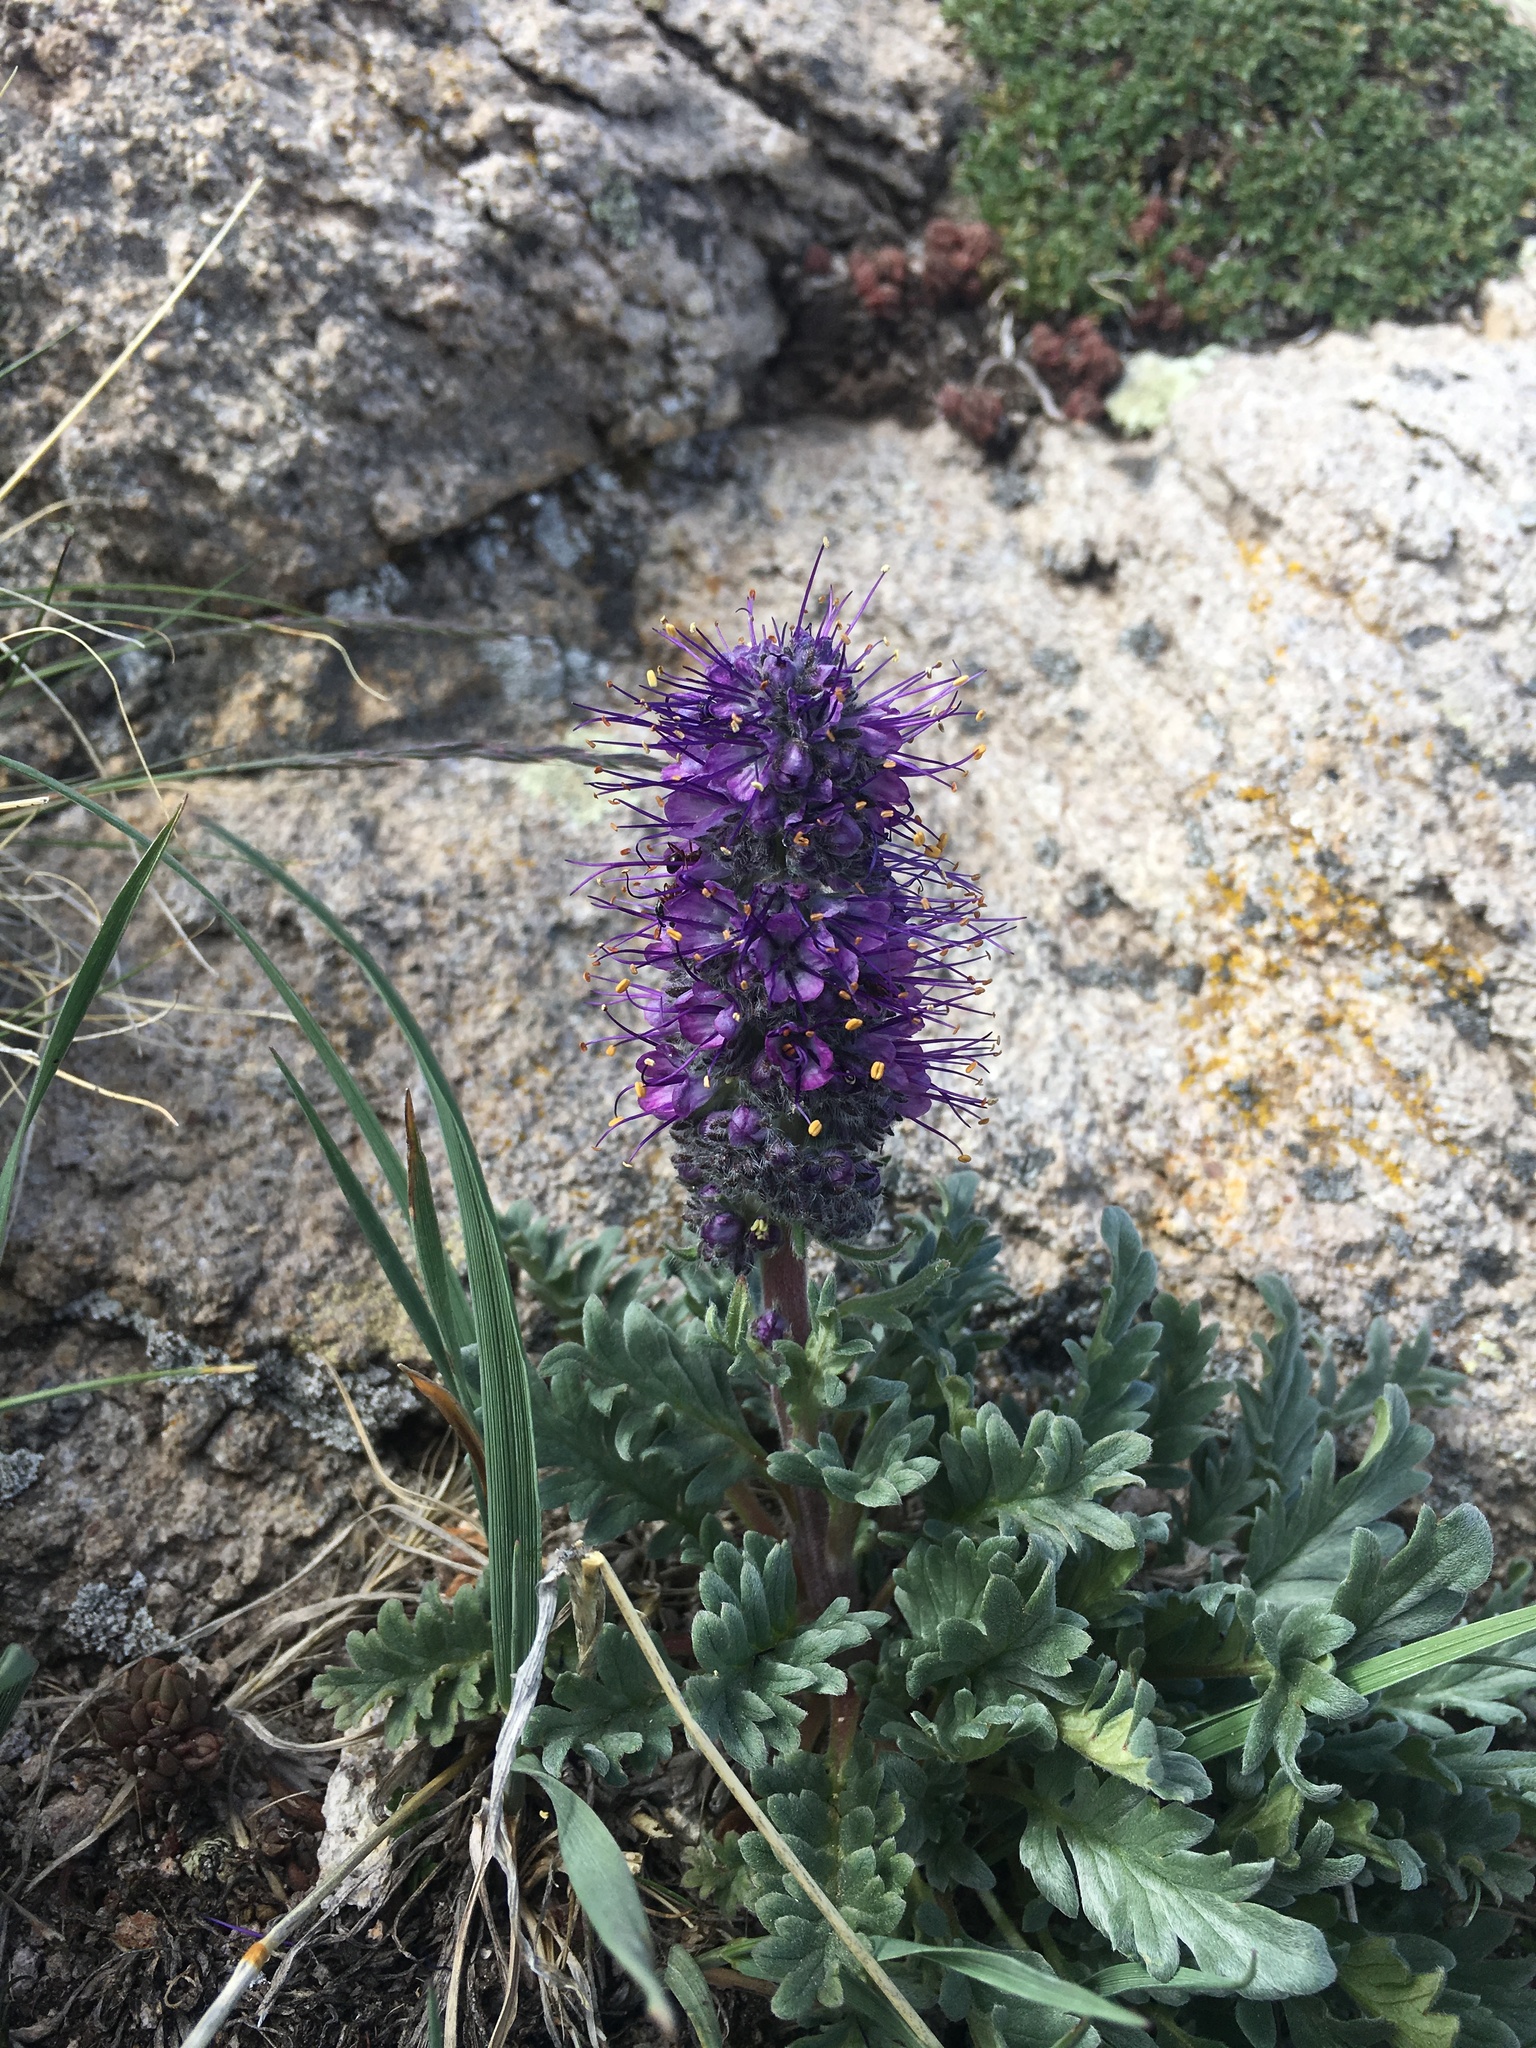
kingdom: Plantae
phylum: Tracheophyta
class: Magnoliopsida
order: Boraginales
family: Hydrophyllaceae
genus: Phacelia
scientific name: Phacelia sericea
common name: Silky phacelia
